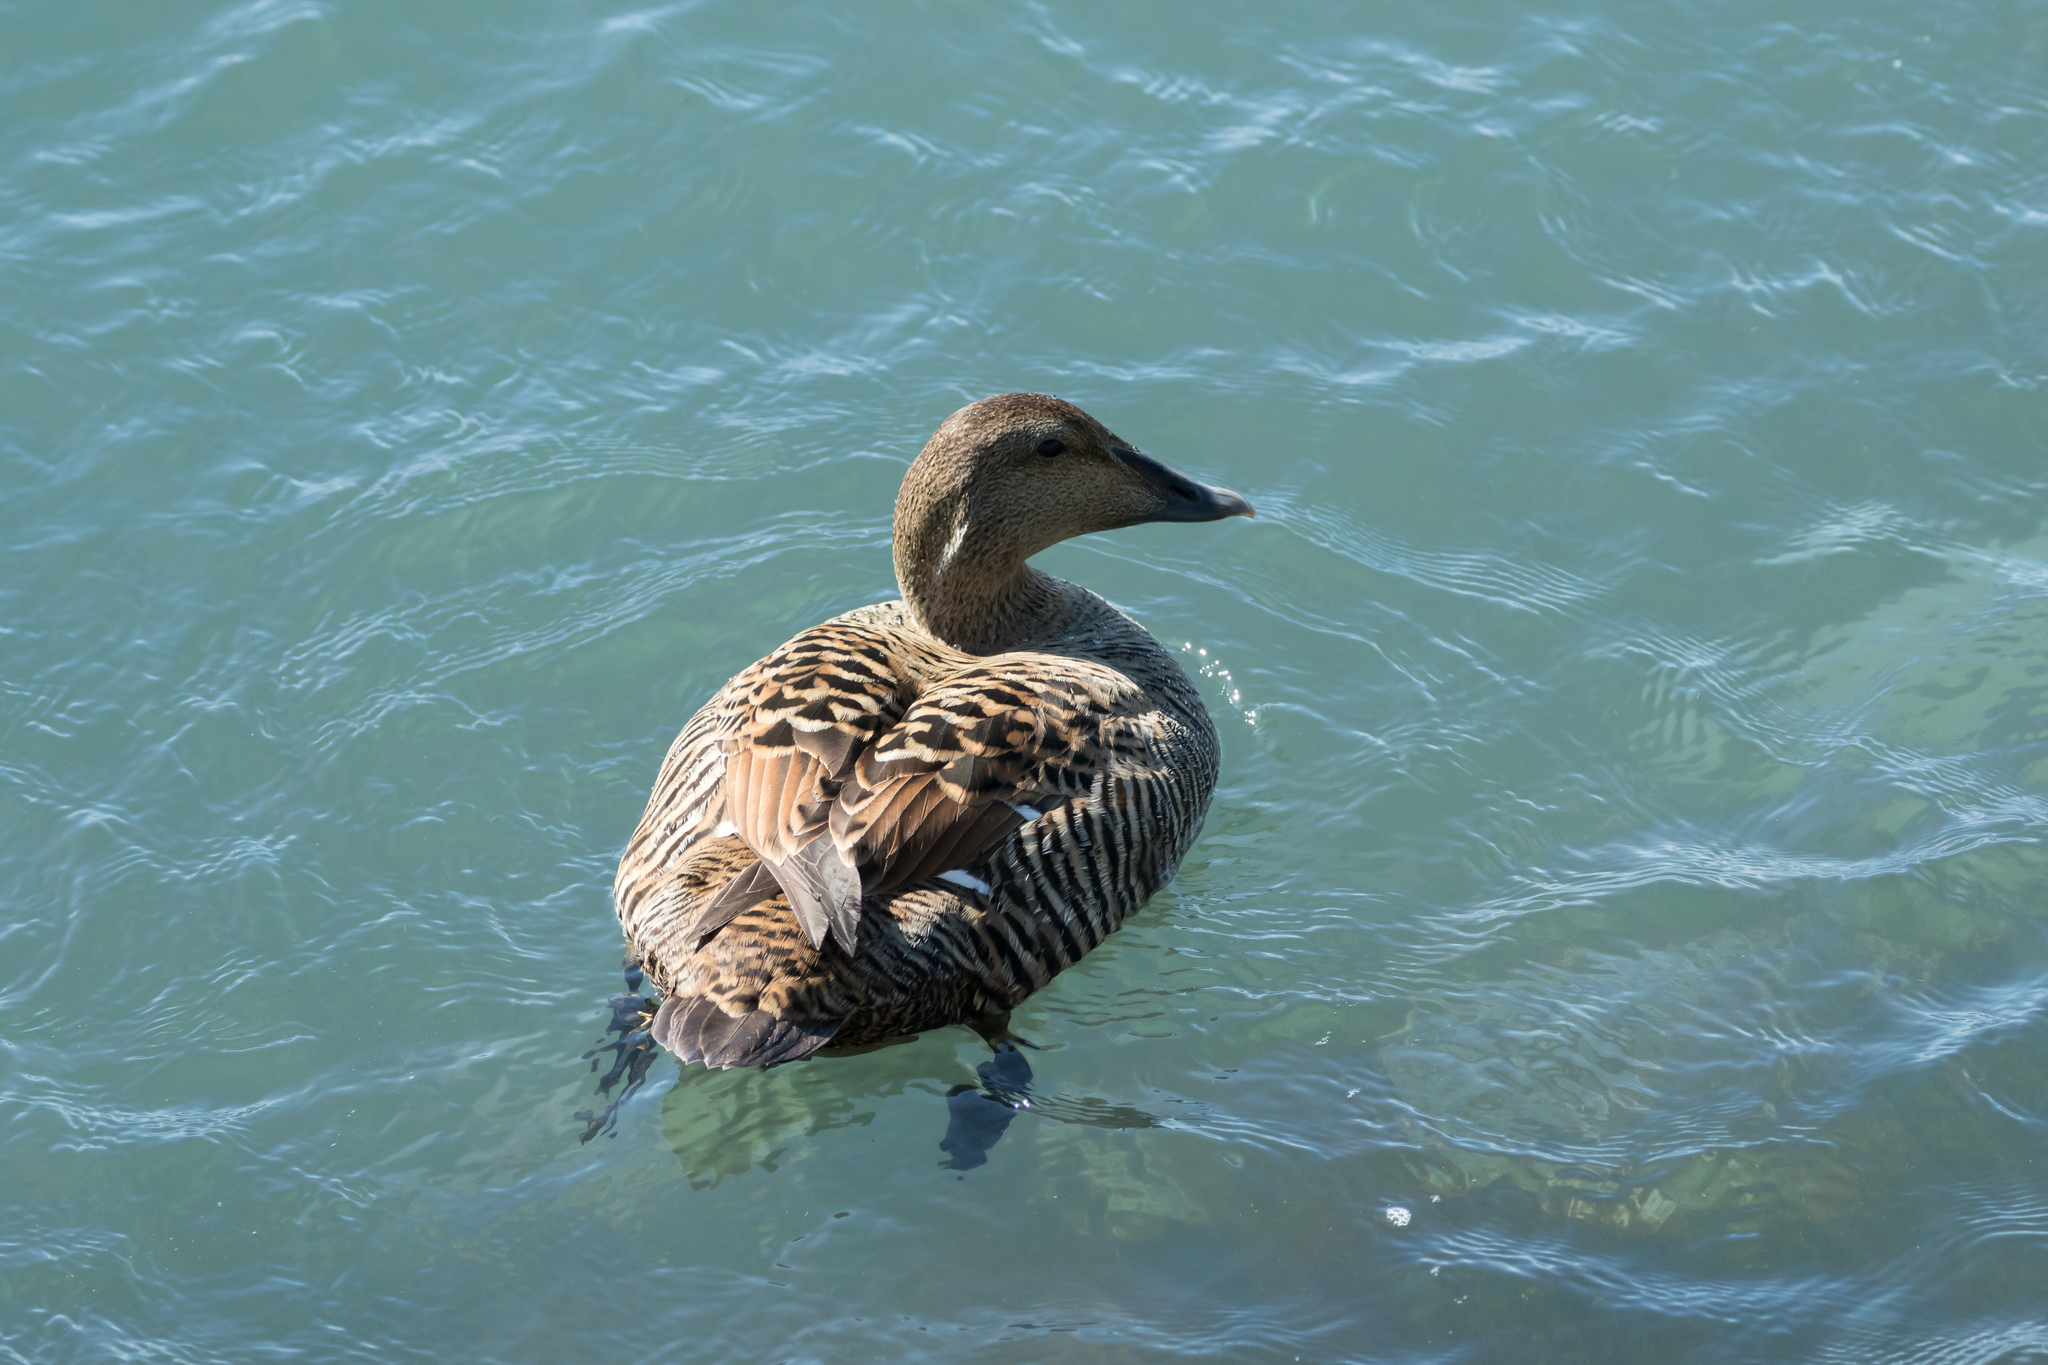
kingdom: Animalia
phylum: Chordata
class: Aves
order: Anseriformes
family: Anatidae
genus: Somateria
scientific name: Somateria mollissima
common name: Common eider
